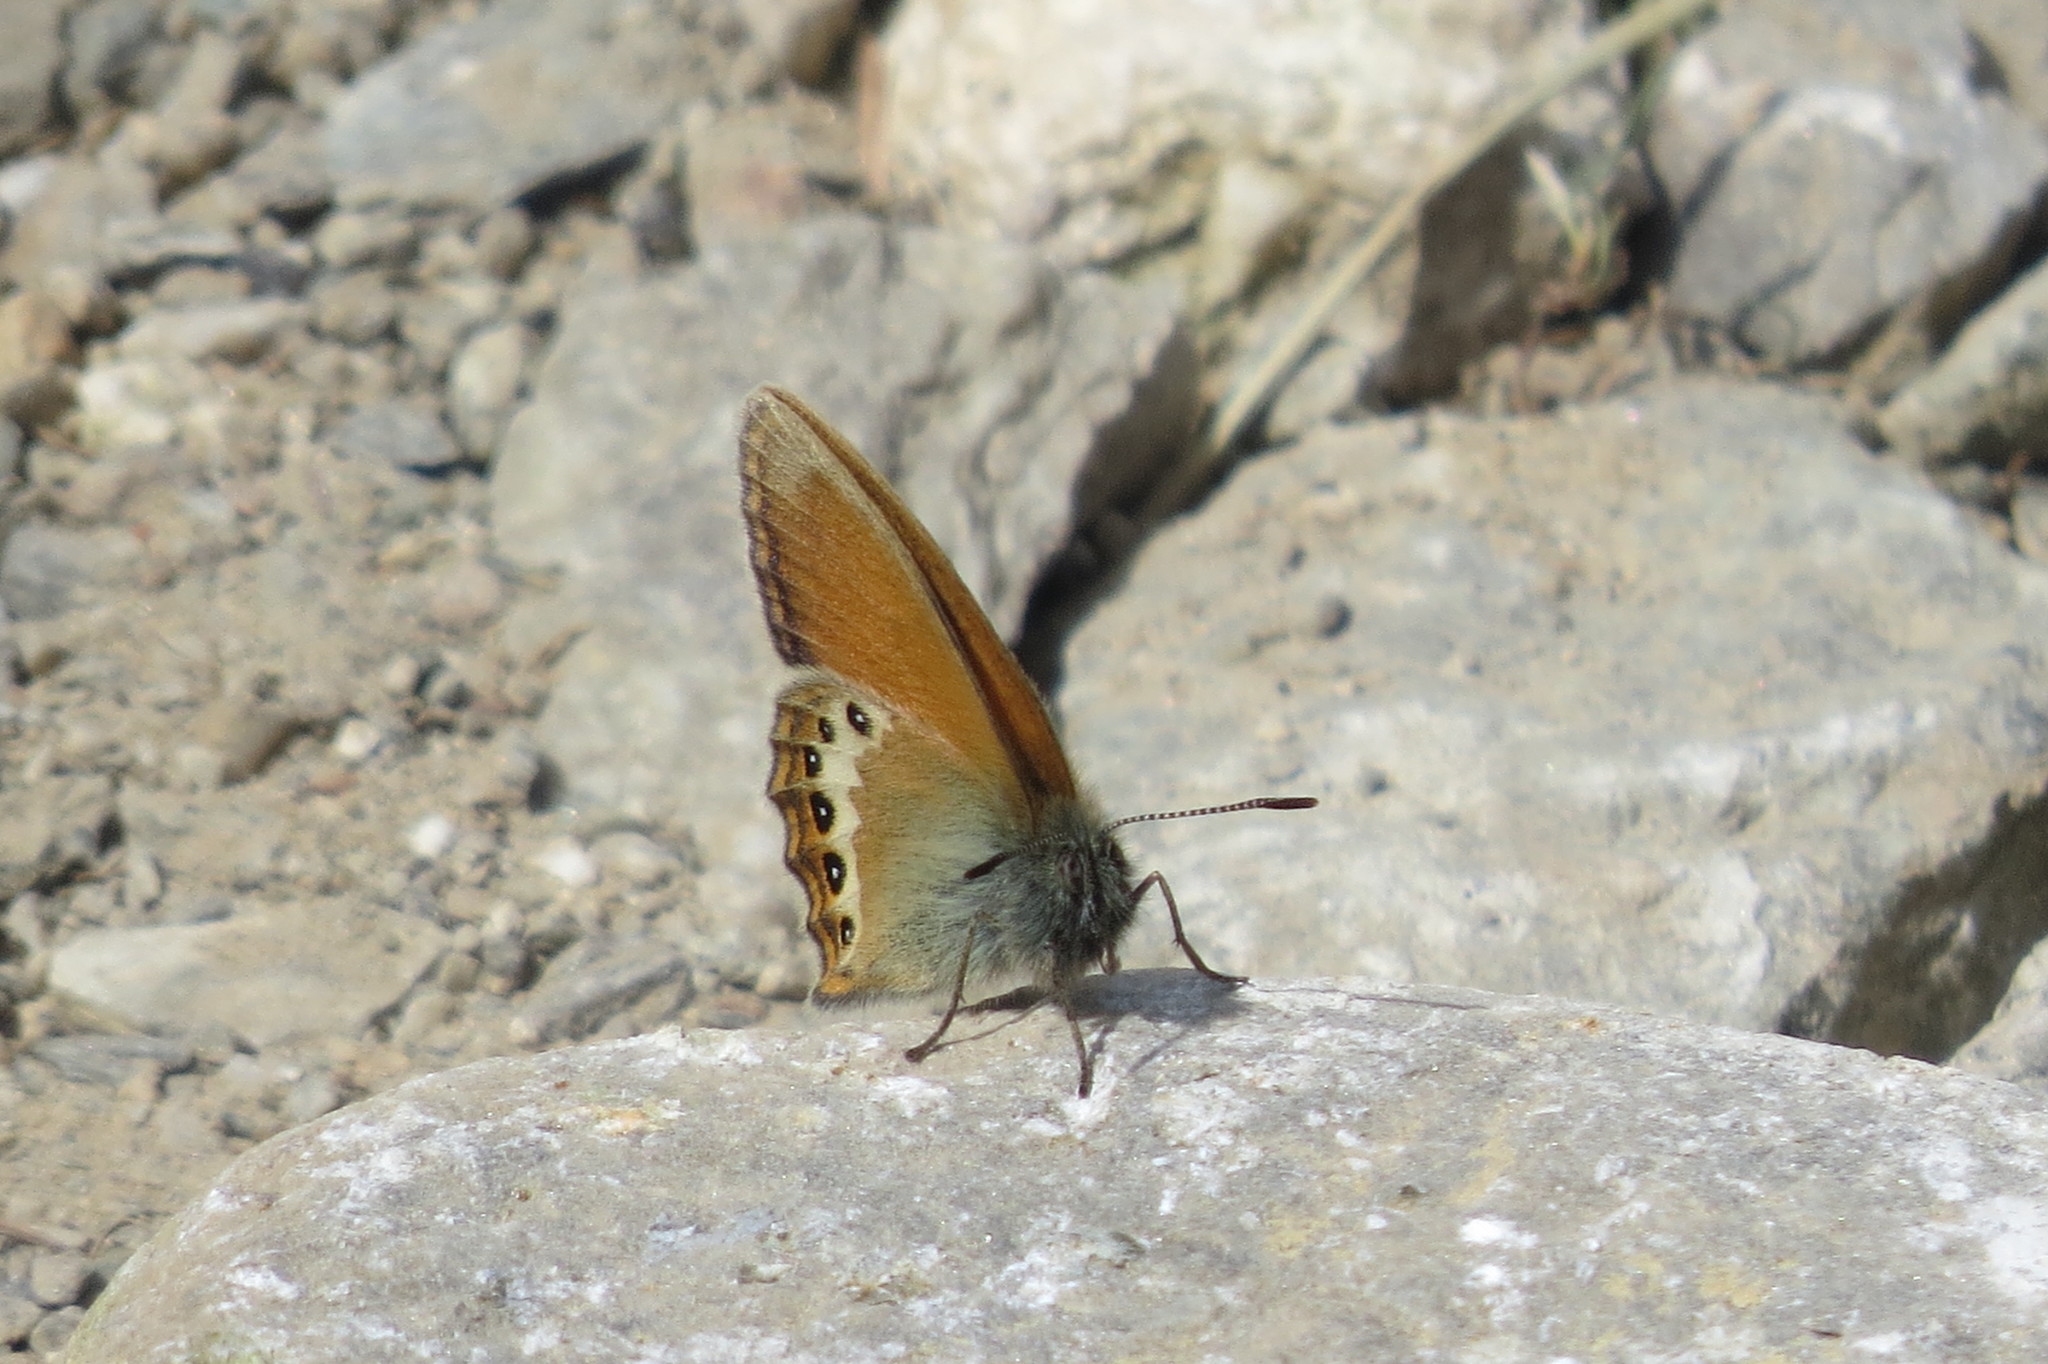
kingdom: Animalia
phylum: Arthropoda
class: Insecta
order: Lepidoptera
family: Nymphalidae
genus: Coenonympha
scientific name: Coenonympha
